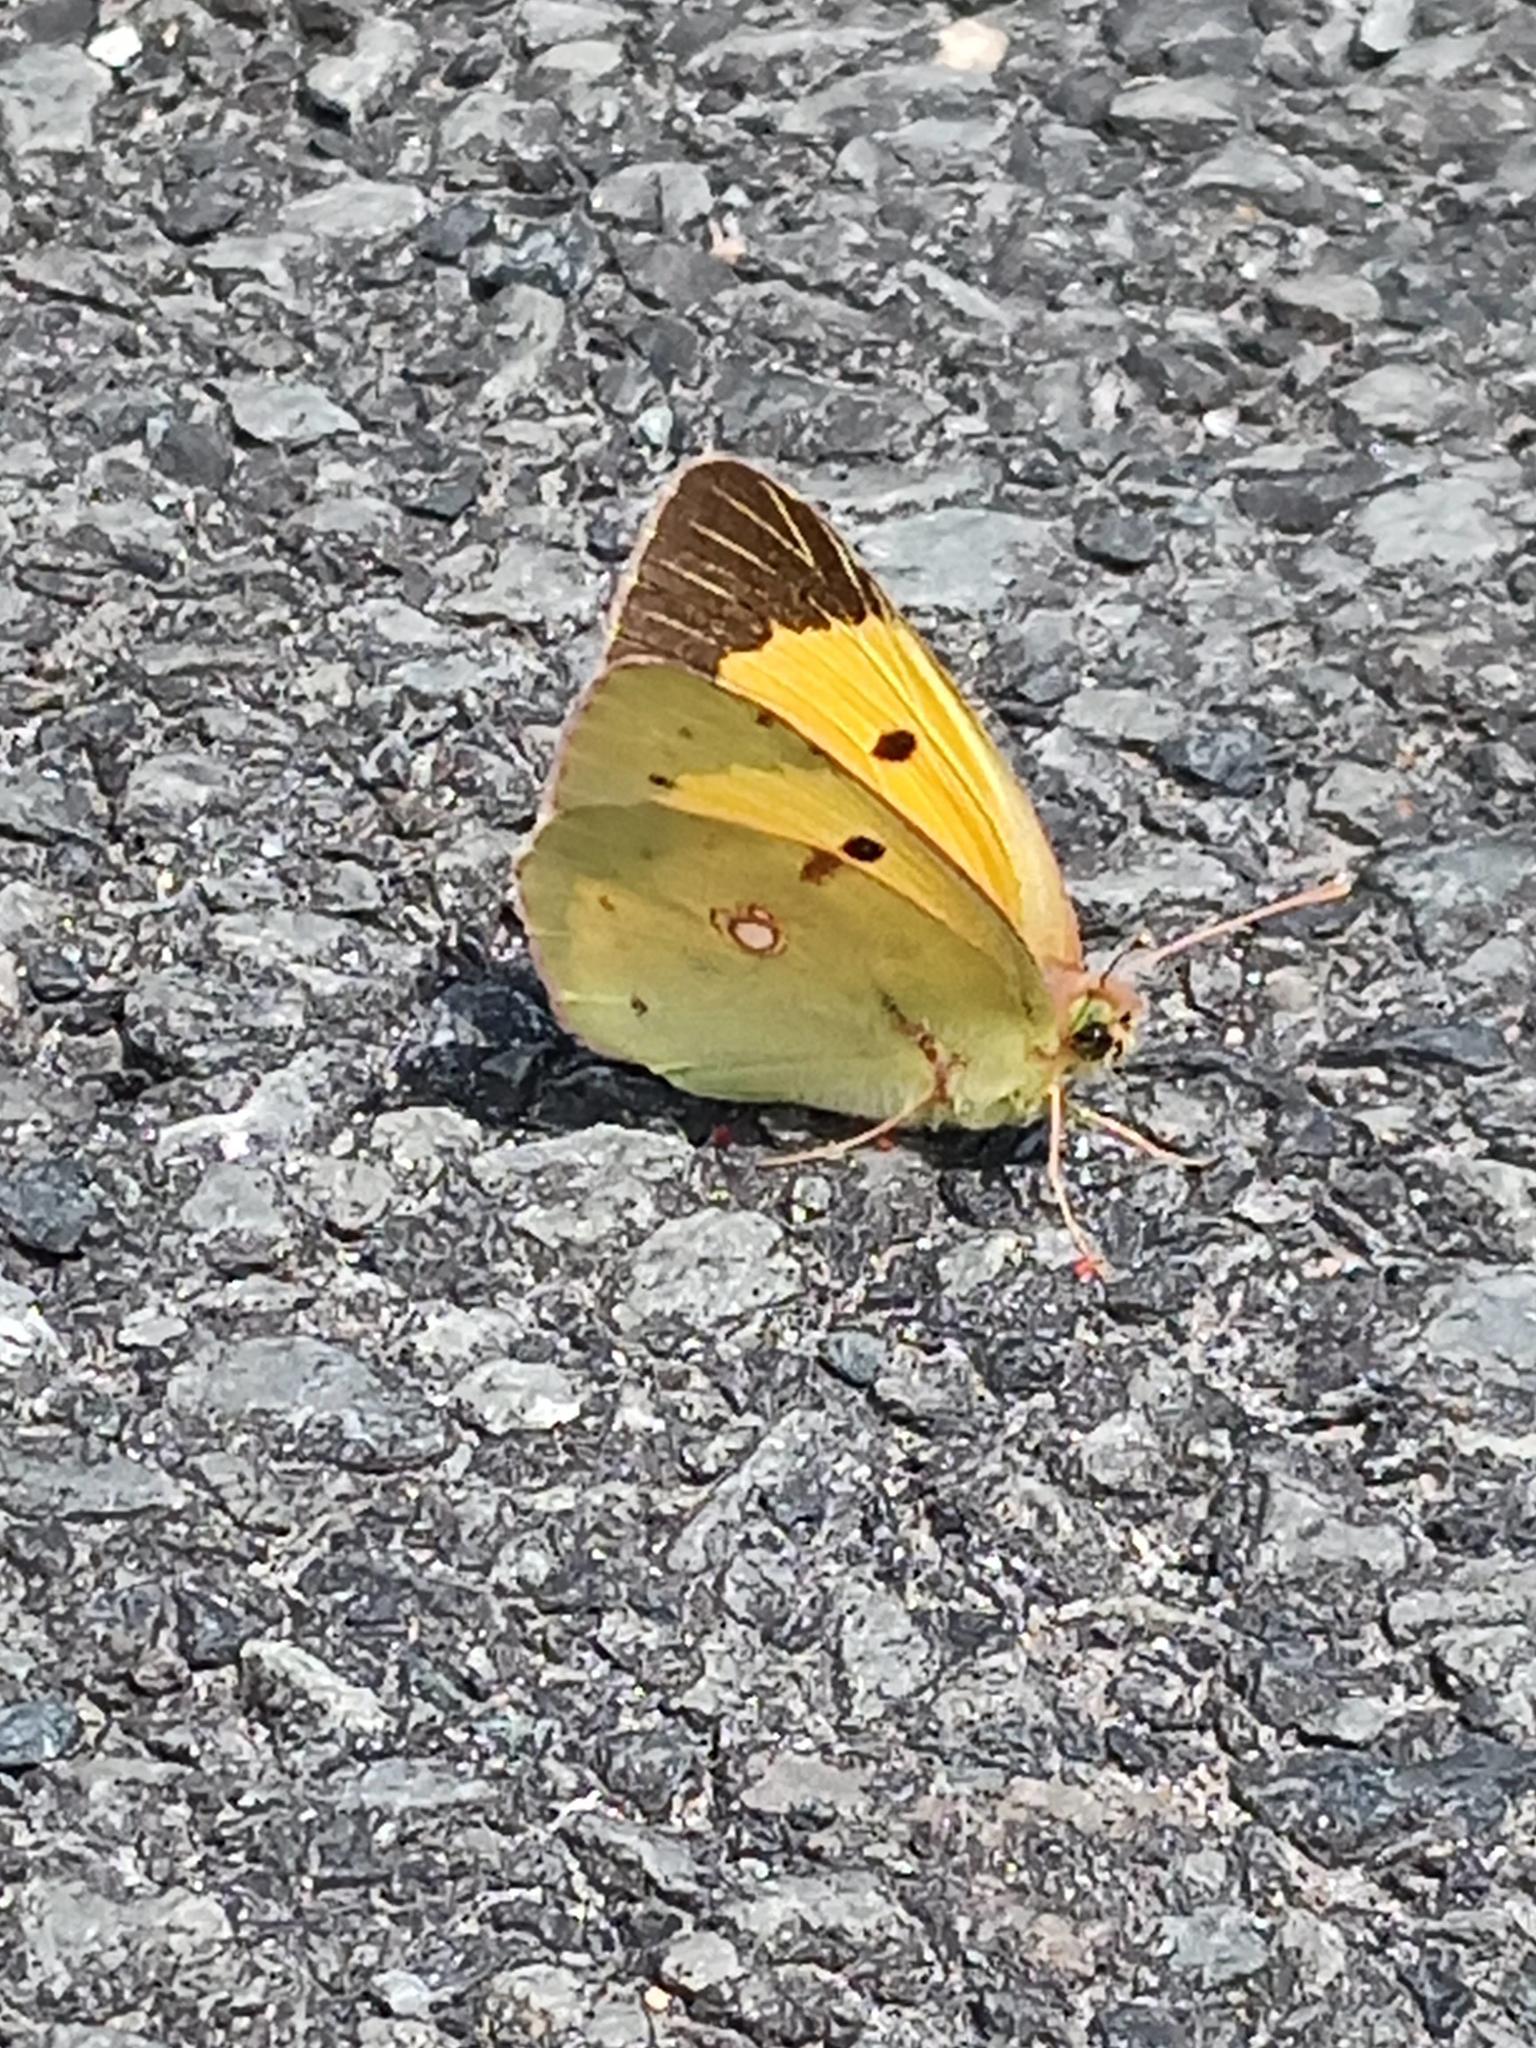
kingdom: Animalia
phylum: Arthropoda
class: Insecta
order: Lepidoptera
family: Pieridae
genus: Colias
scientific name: Colias croceus
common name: Clouded yellow
